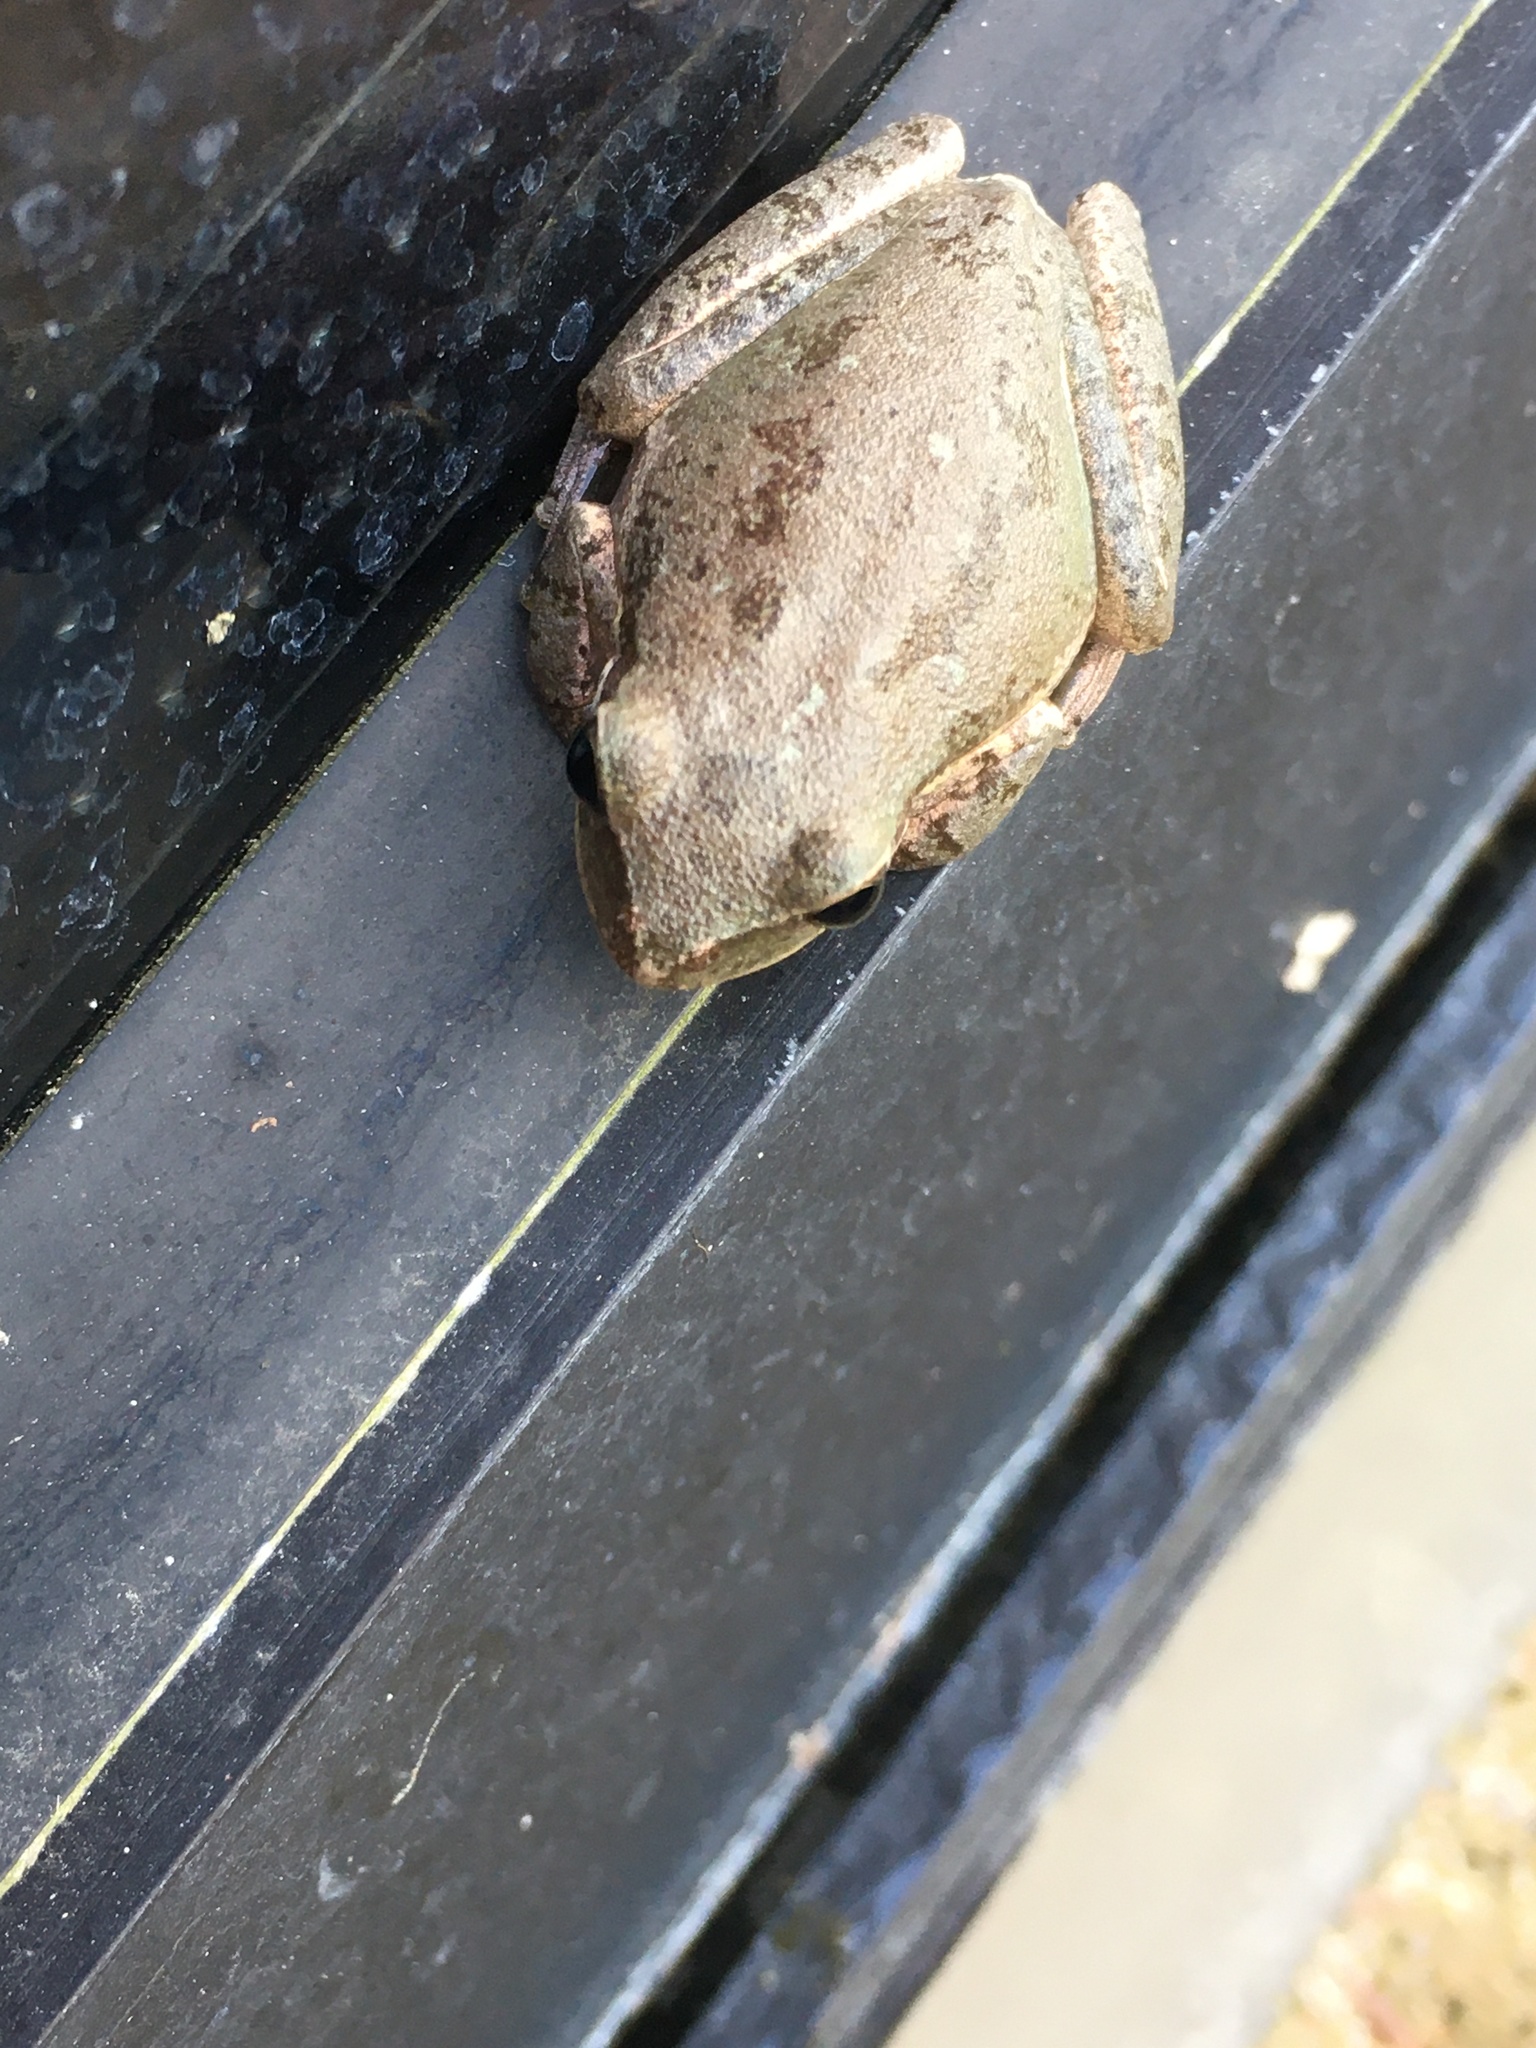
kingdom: Animalia
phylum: Chordata
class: Amphibia
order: Anura
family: Hylidae
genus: Dryophytes
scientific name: Dryophytes squirellus
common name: Squirrel treefrog
